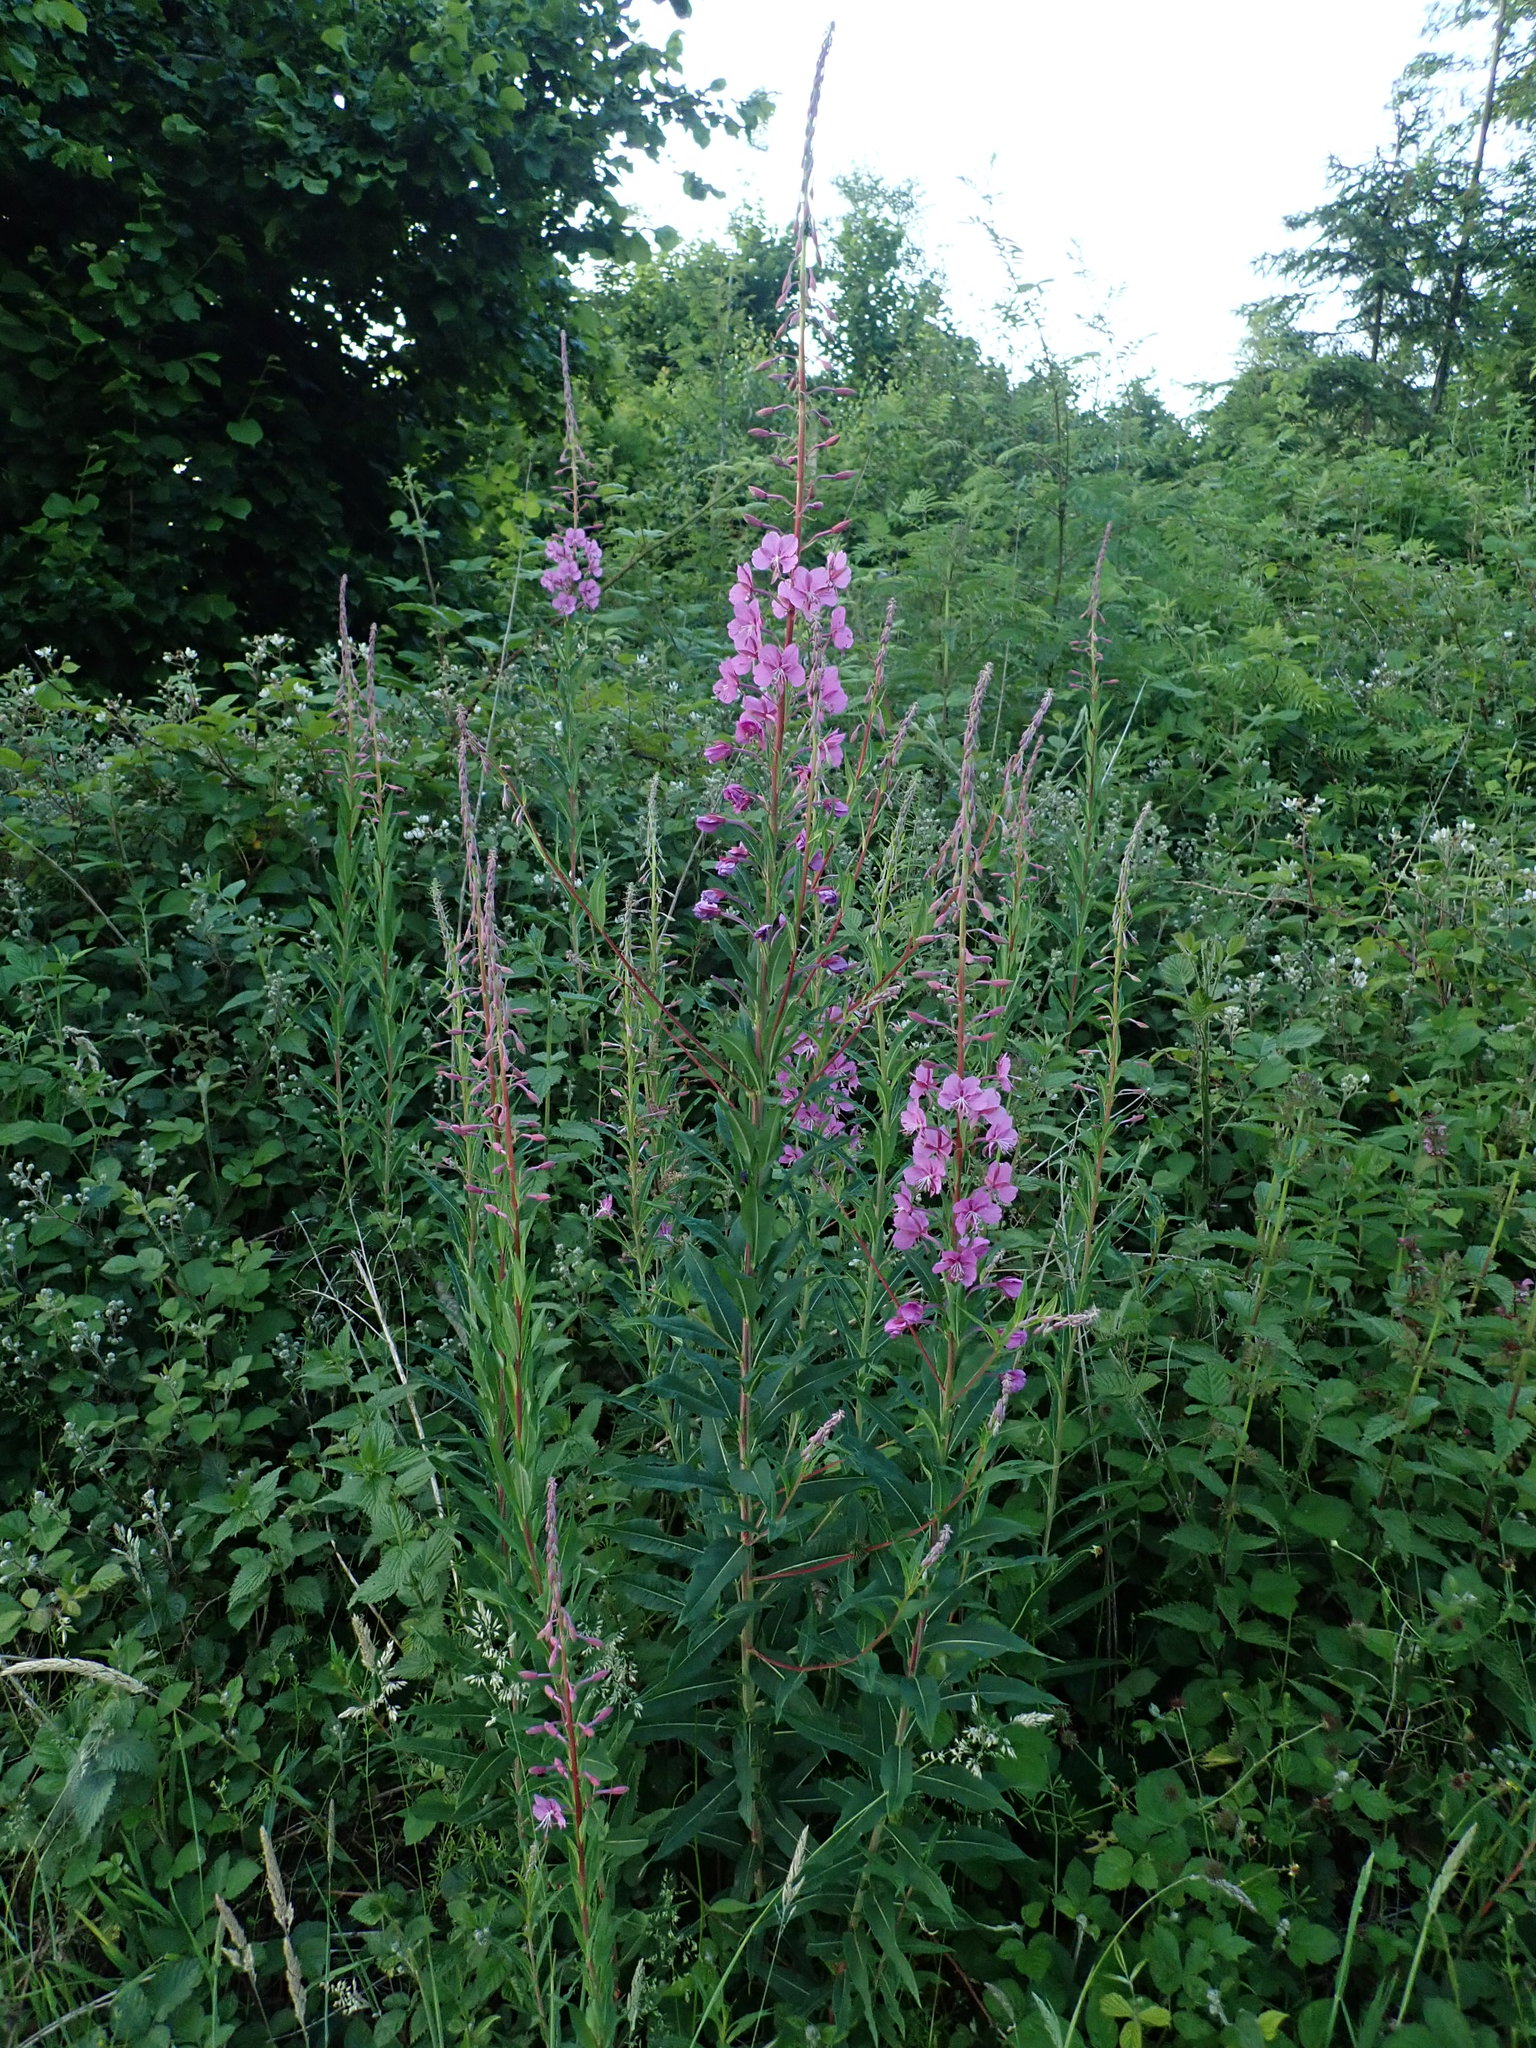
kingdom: Plantae
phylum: Tracheophyta
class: Magnoliopsida
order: Myrtales
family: Onagraceae
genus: Chamaenerion
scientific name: Chamaenerion angustifolium
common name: Fireweed
